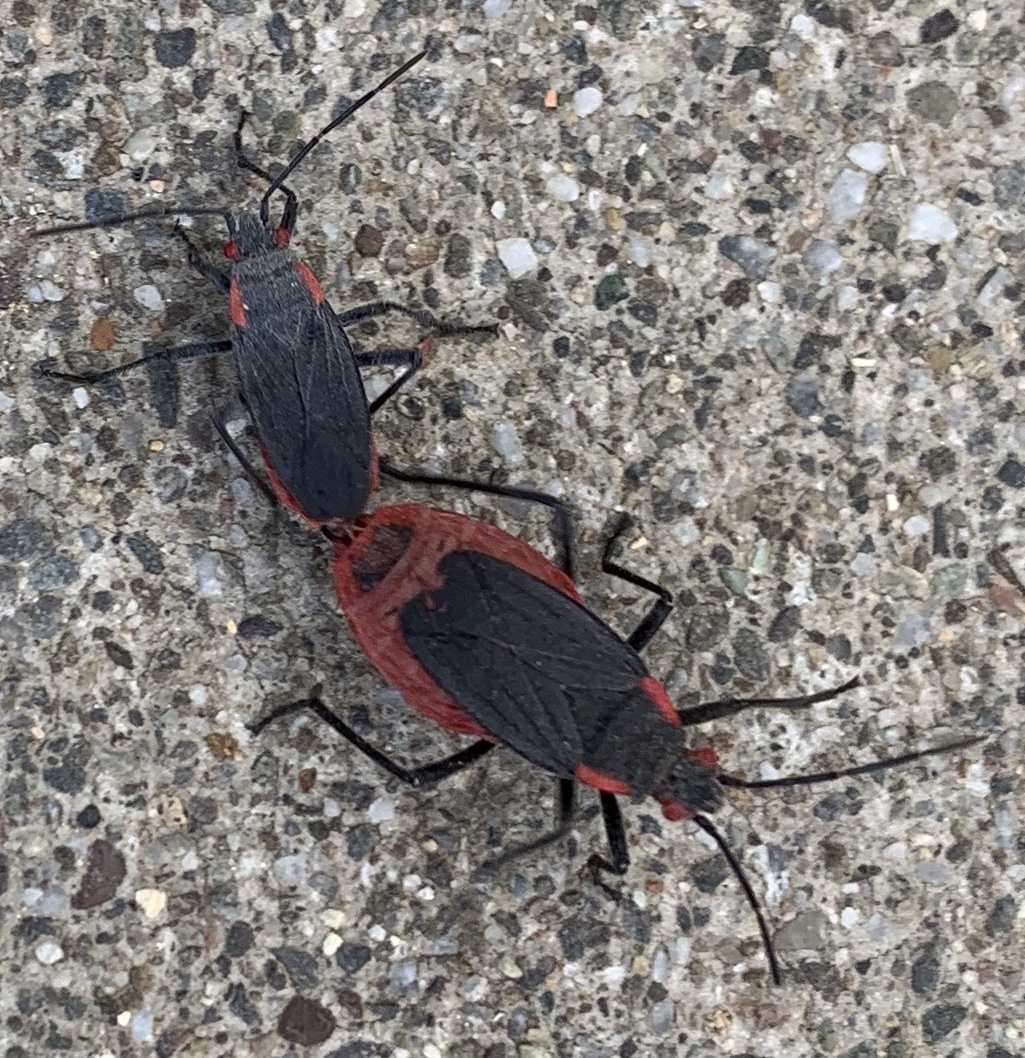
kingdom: Animalia
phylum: Arthropoda
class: Insecta
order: Hemiptera
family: Rhopalidae
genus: Jadera
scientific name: Jadera haematoloma
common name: Red-shouldered bug
